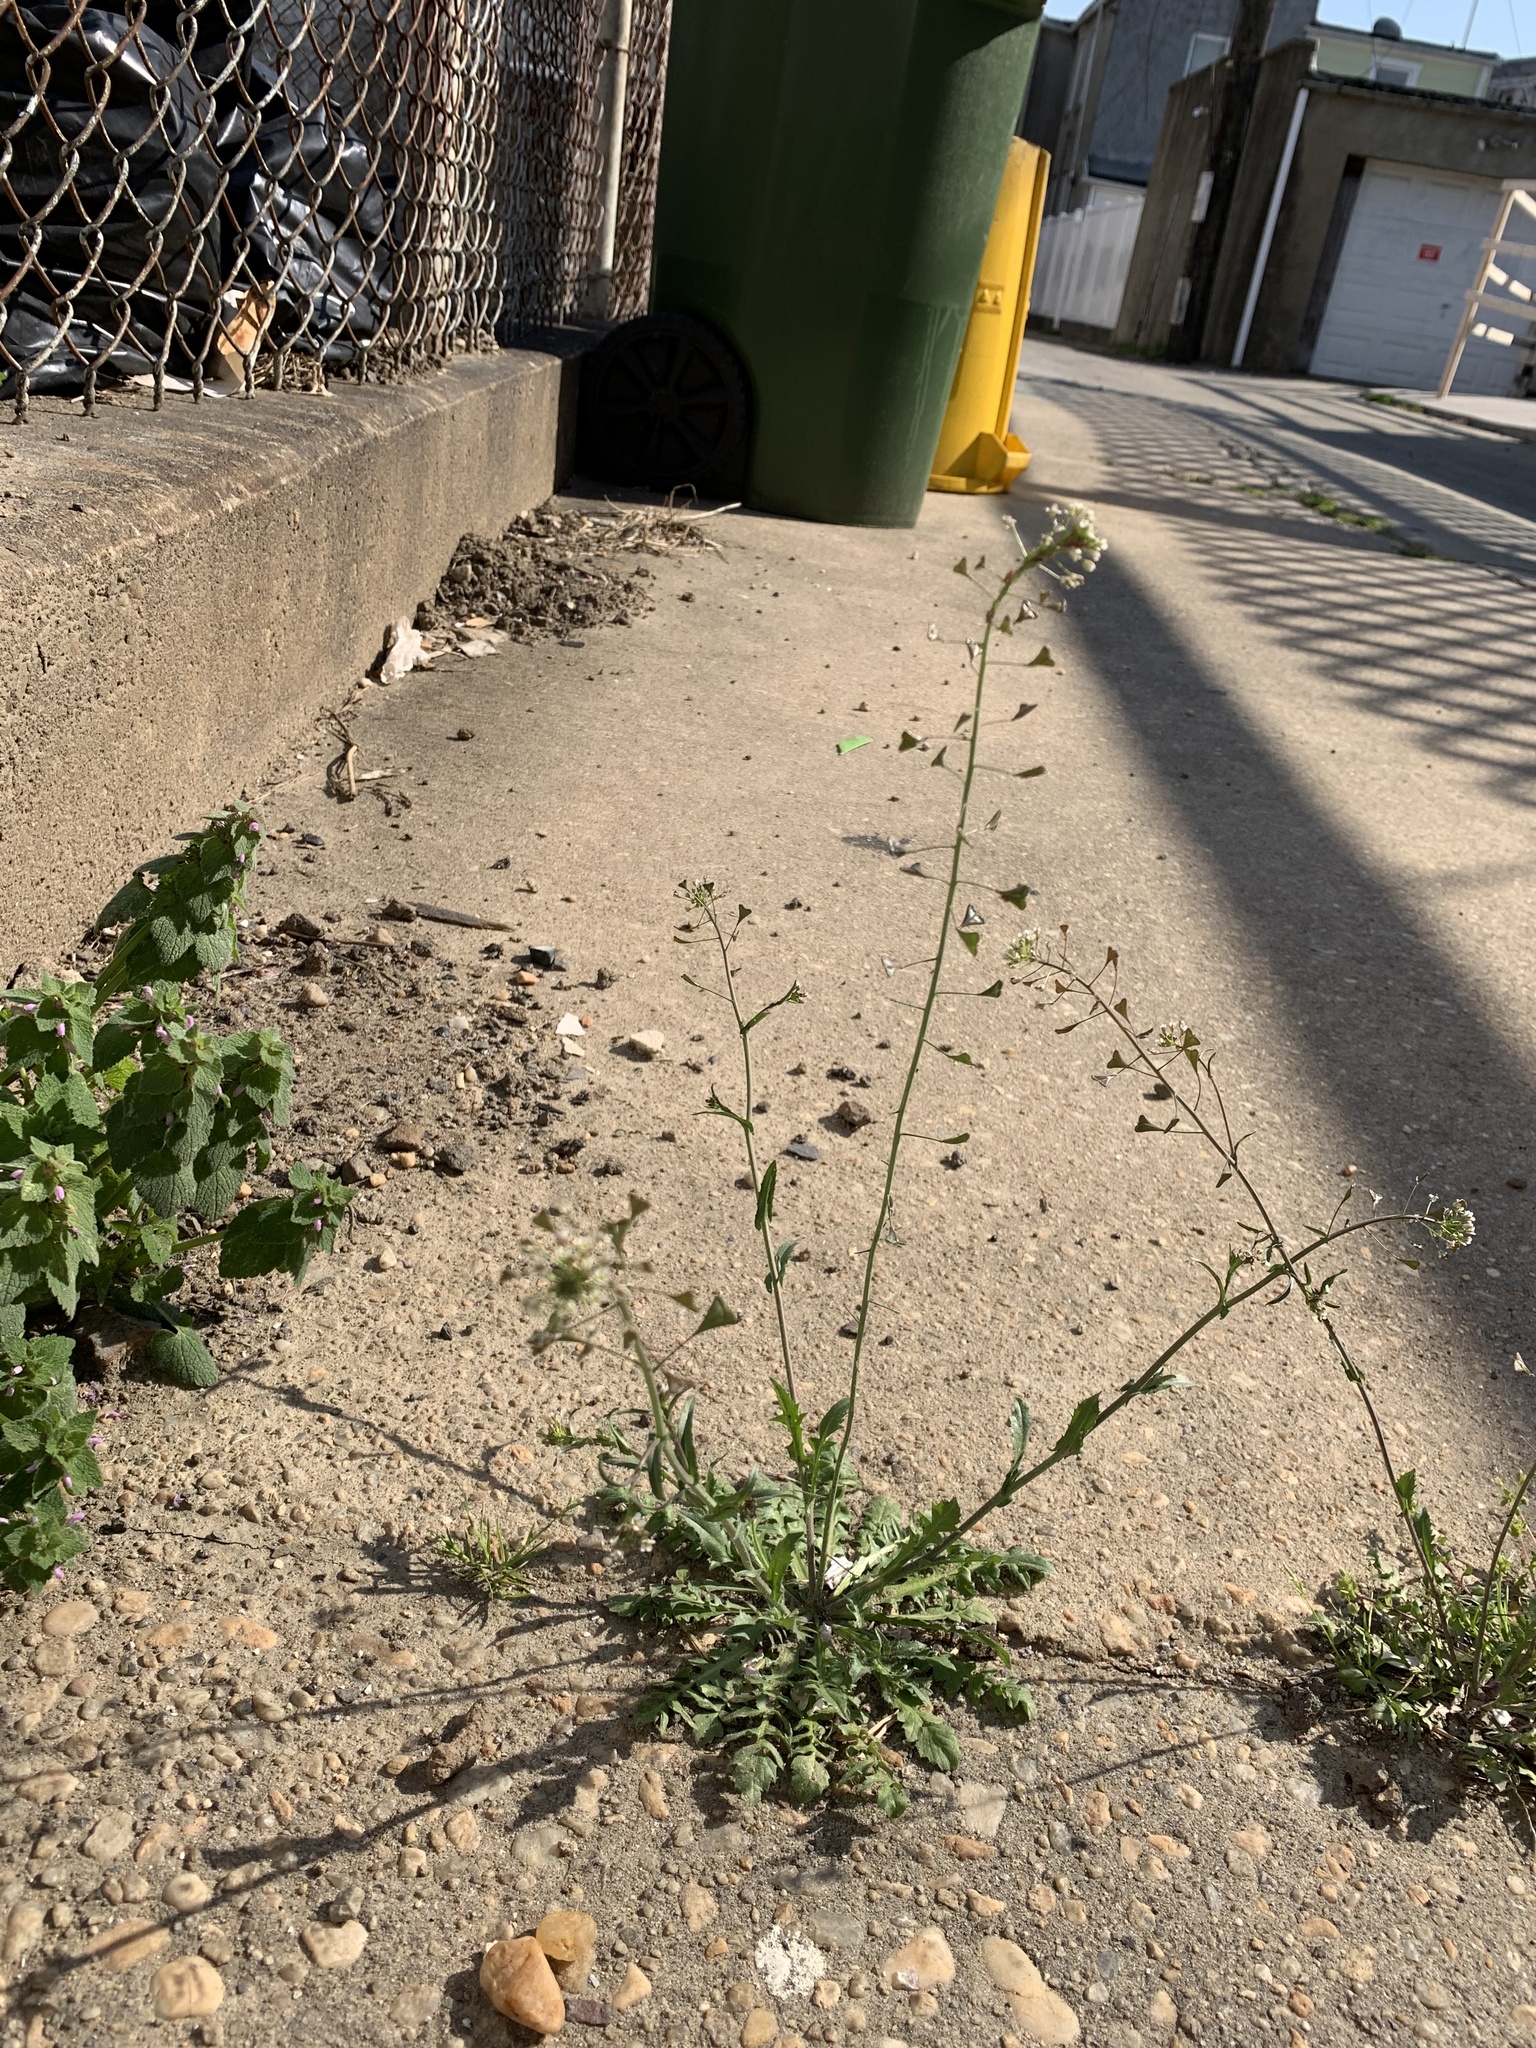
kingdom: Plantae
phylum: Tracheophyta
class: Magnoliopsida
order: Brassicales
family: Brassicaceae
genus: Capsella
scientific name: Capsella bursa-pastoris
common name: Shepherd's purse
